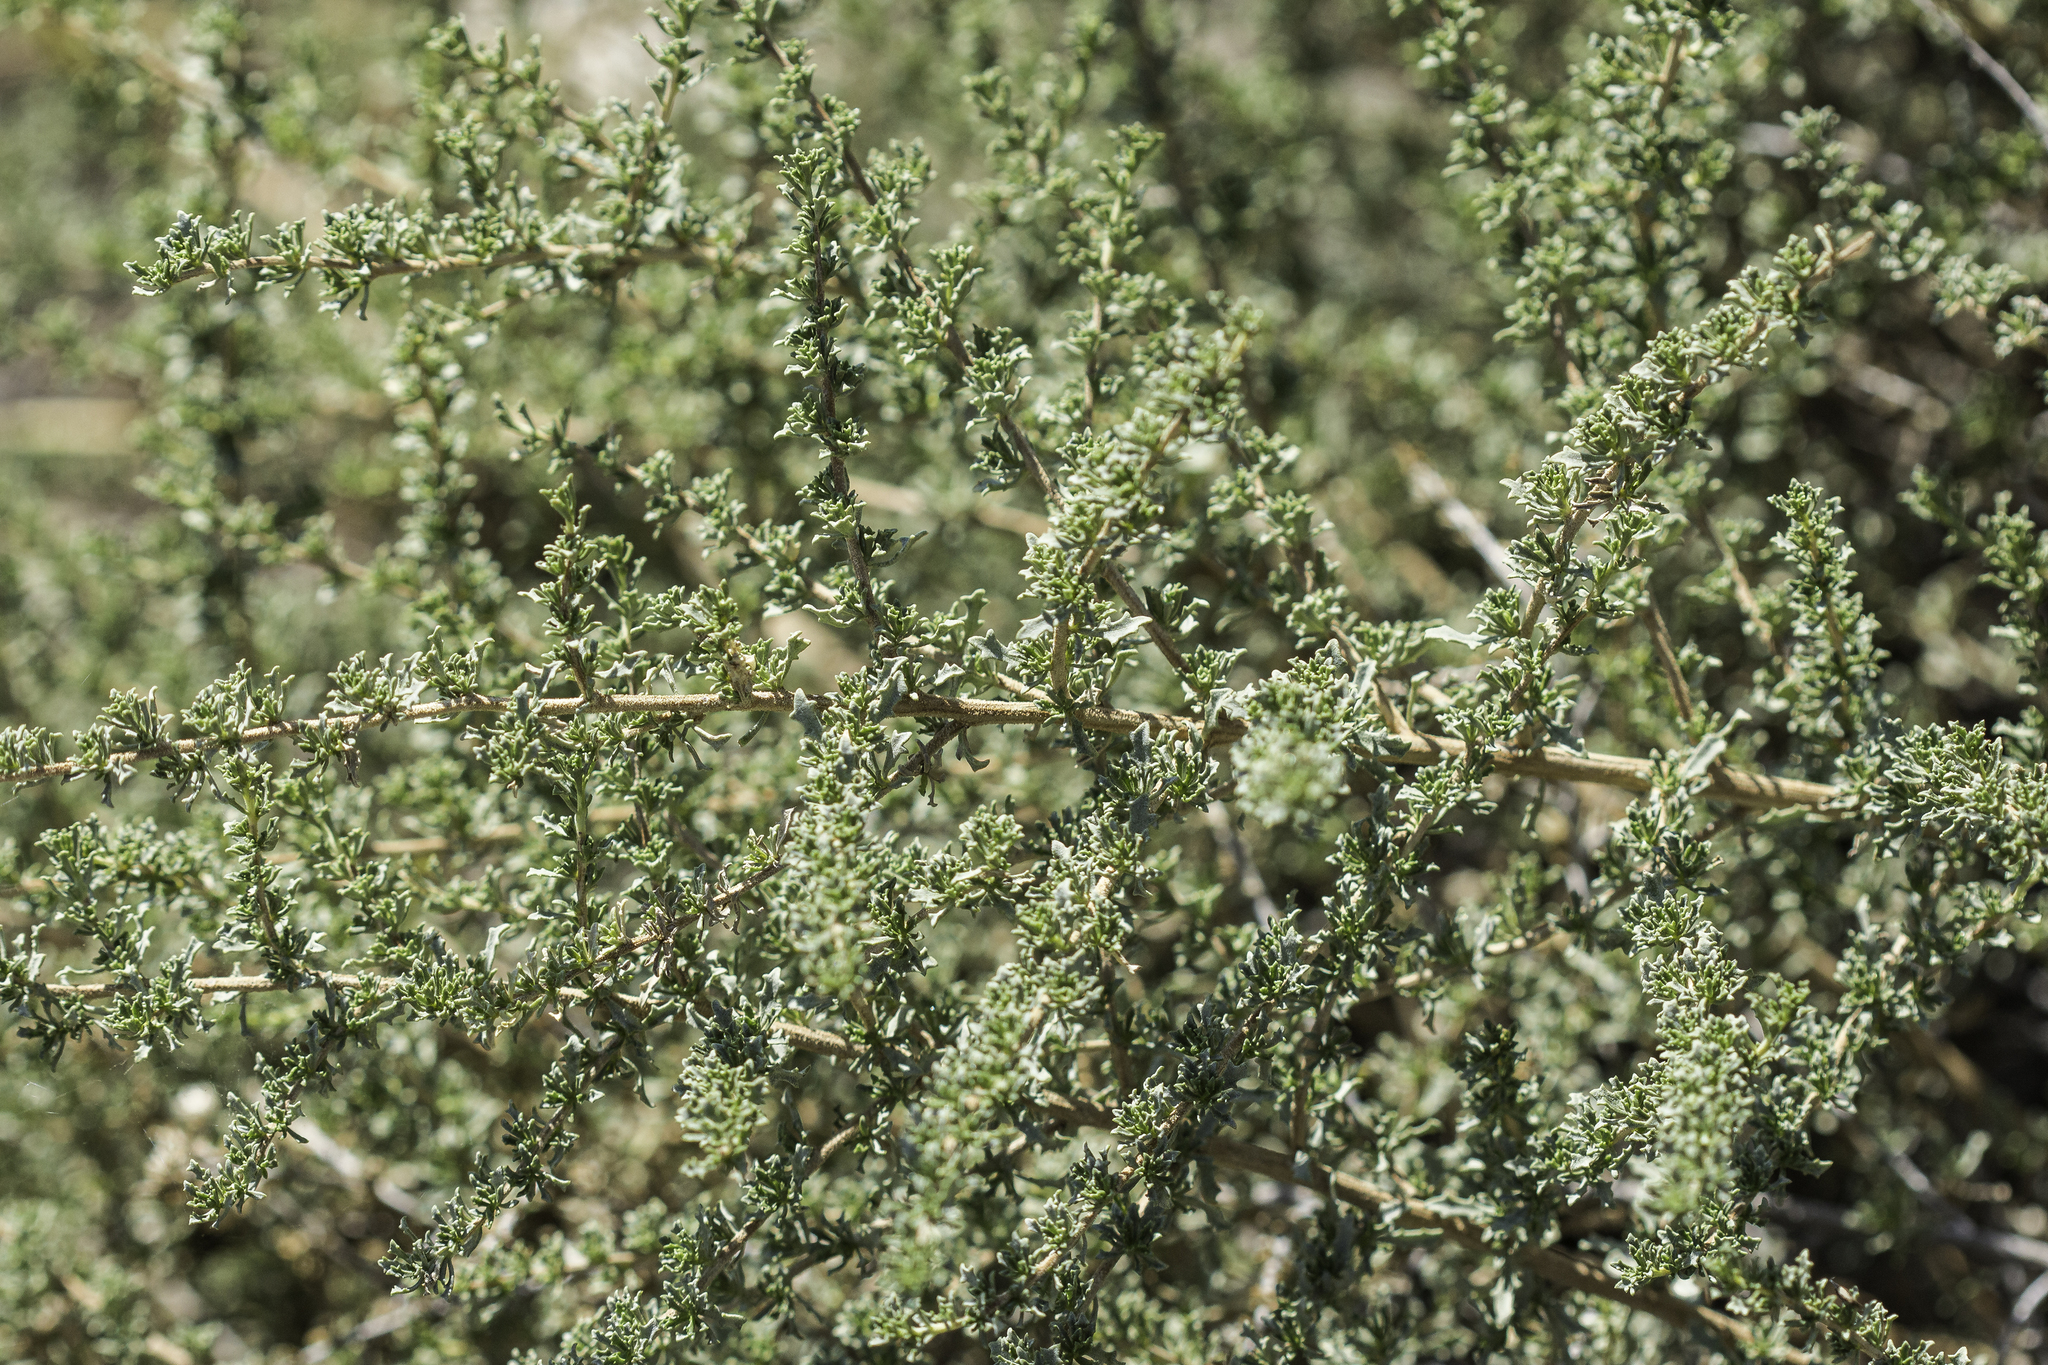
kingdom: Plantae
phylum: Tracheophyta
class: Magnoliopsida
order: Asterales
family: Asteraceae
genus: Baccharis
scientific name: Baccharis pteronioides
